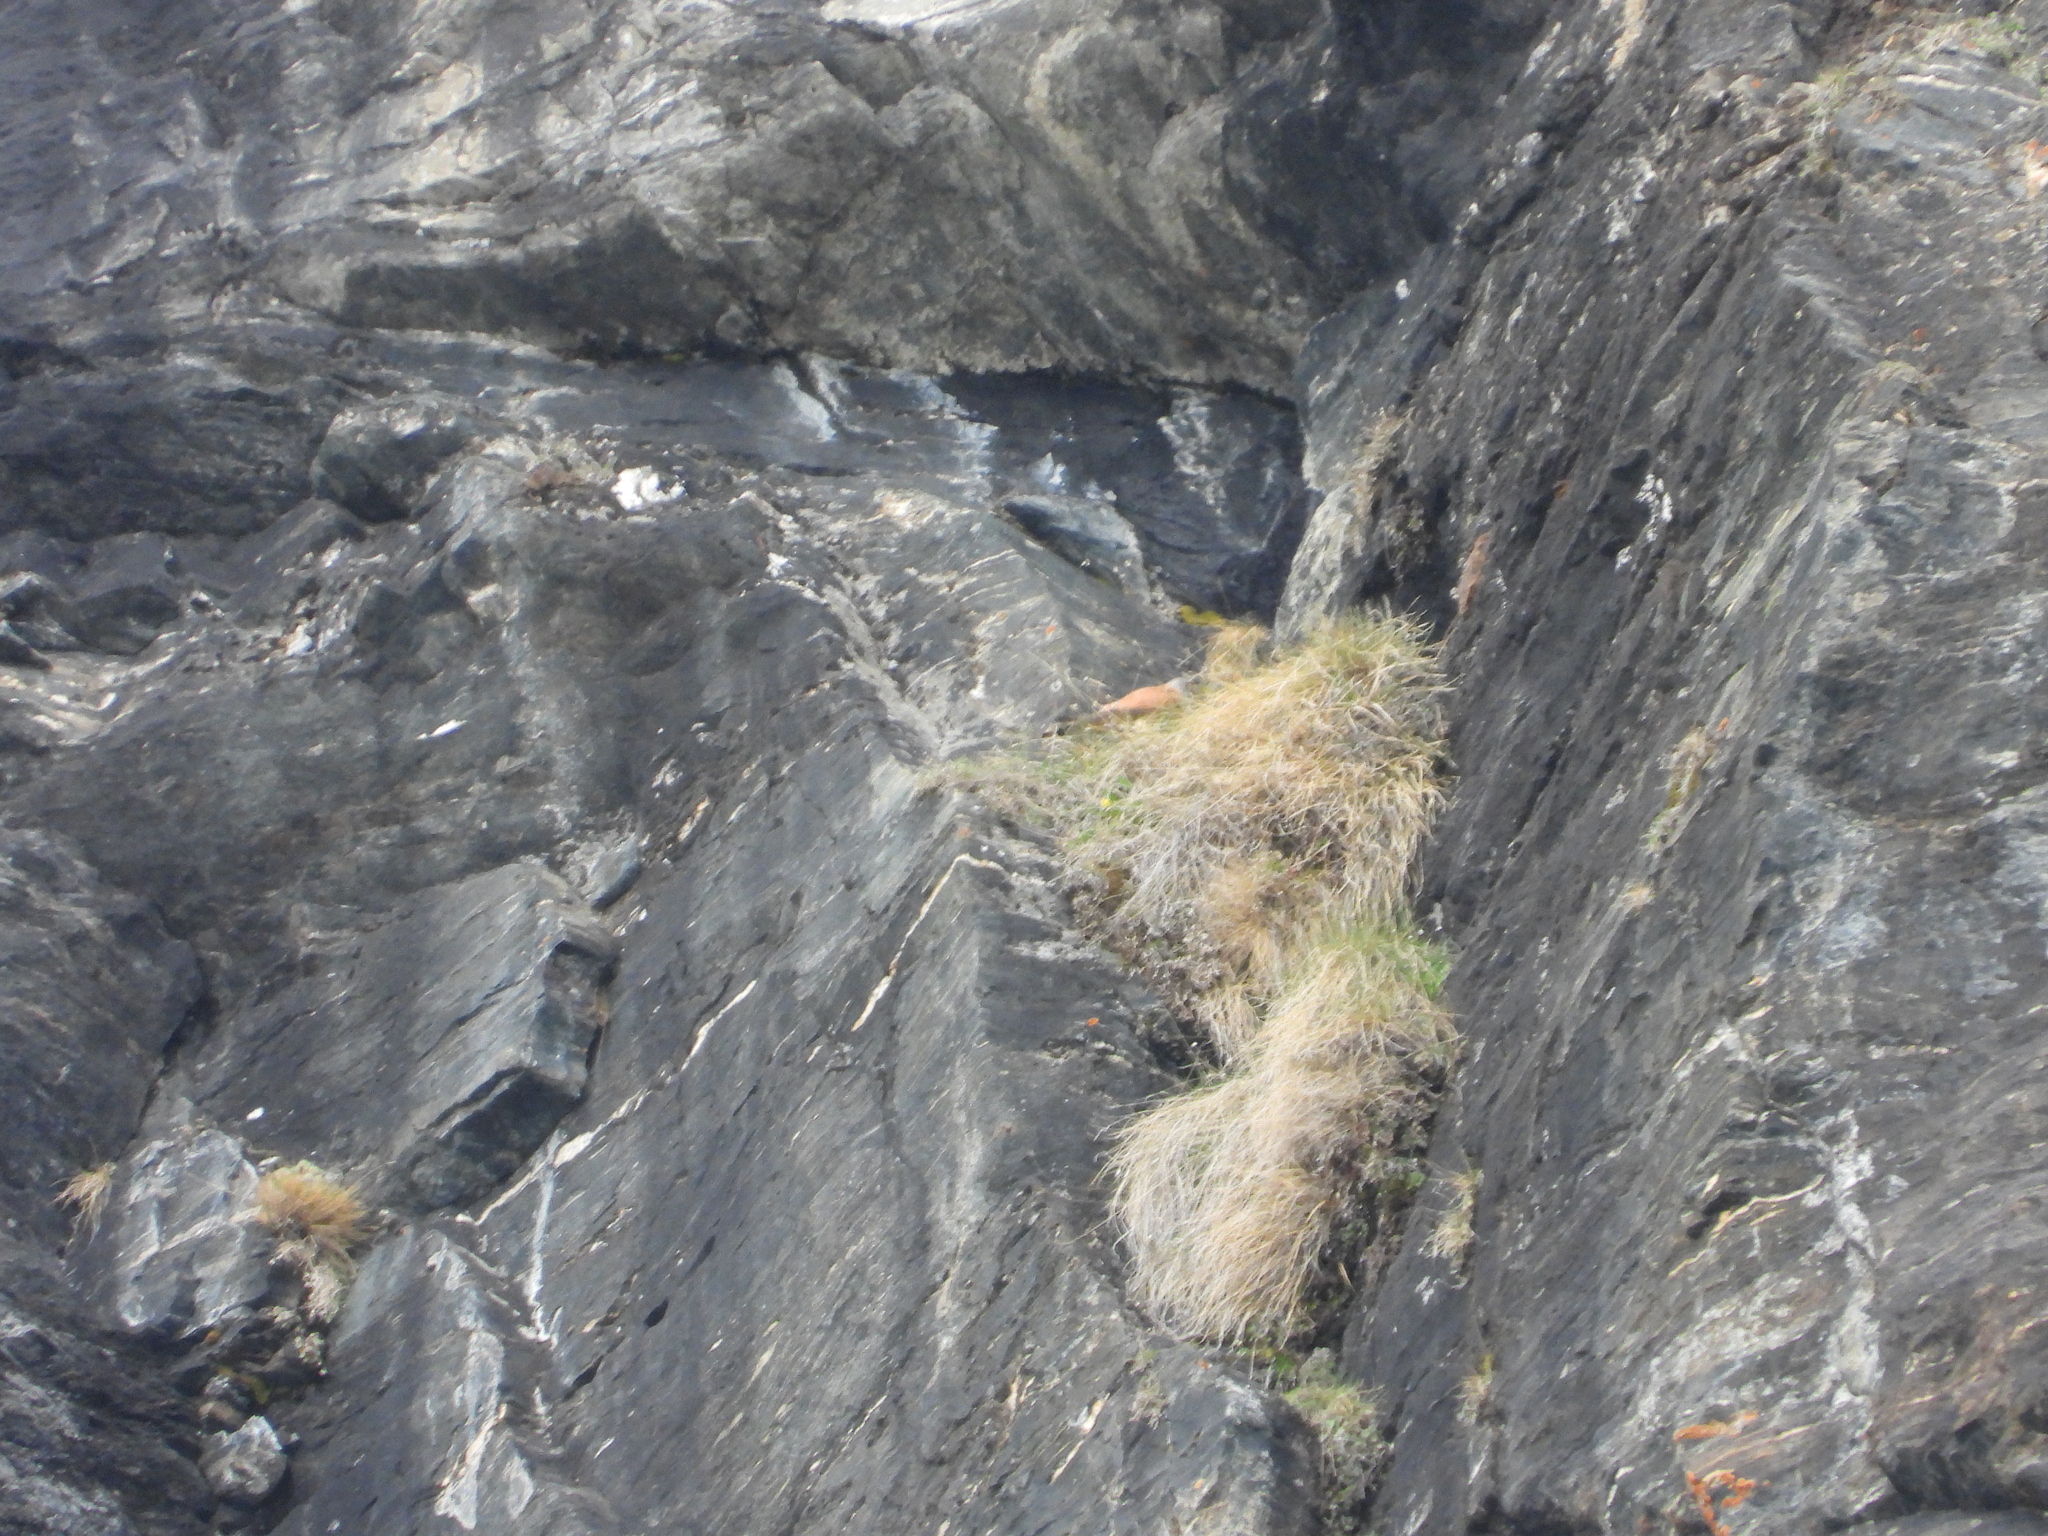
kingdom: Animalia
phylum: Chordata
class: Aves
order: Falconiformes
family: Falconidae
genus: Falco
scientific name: Falco tinnunculus
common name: Common kestrel
